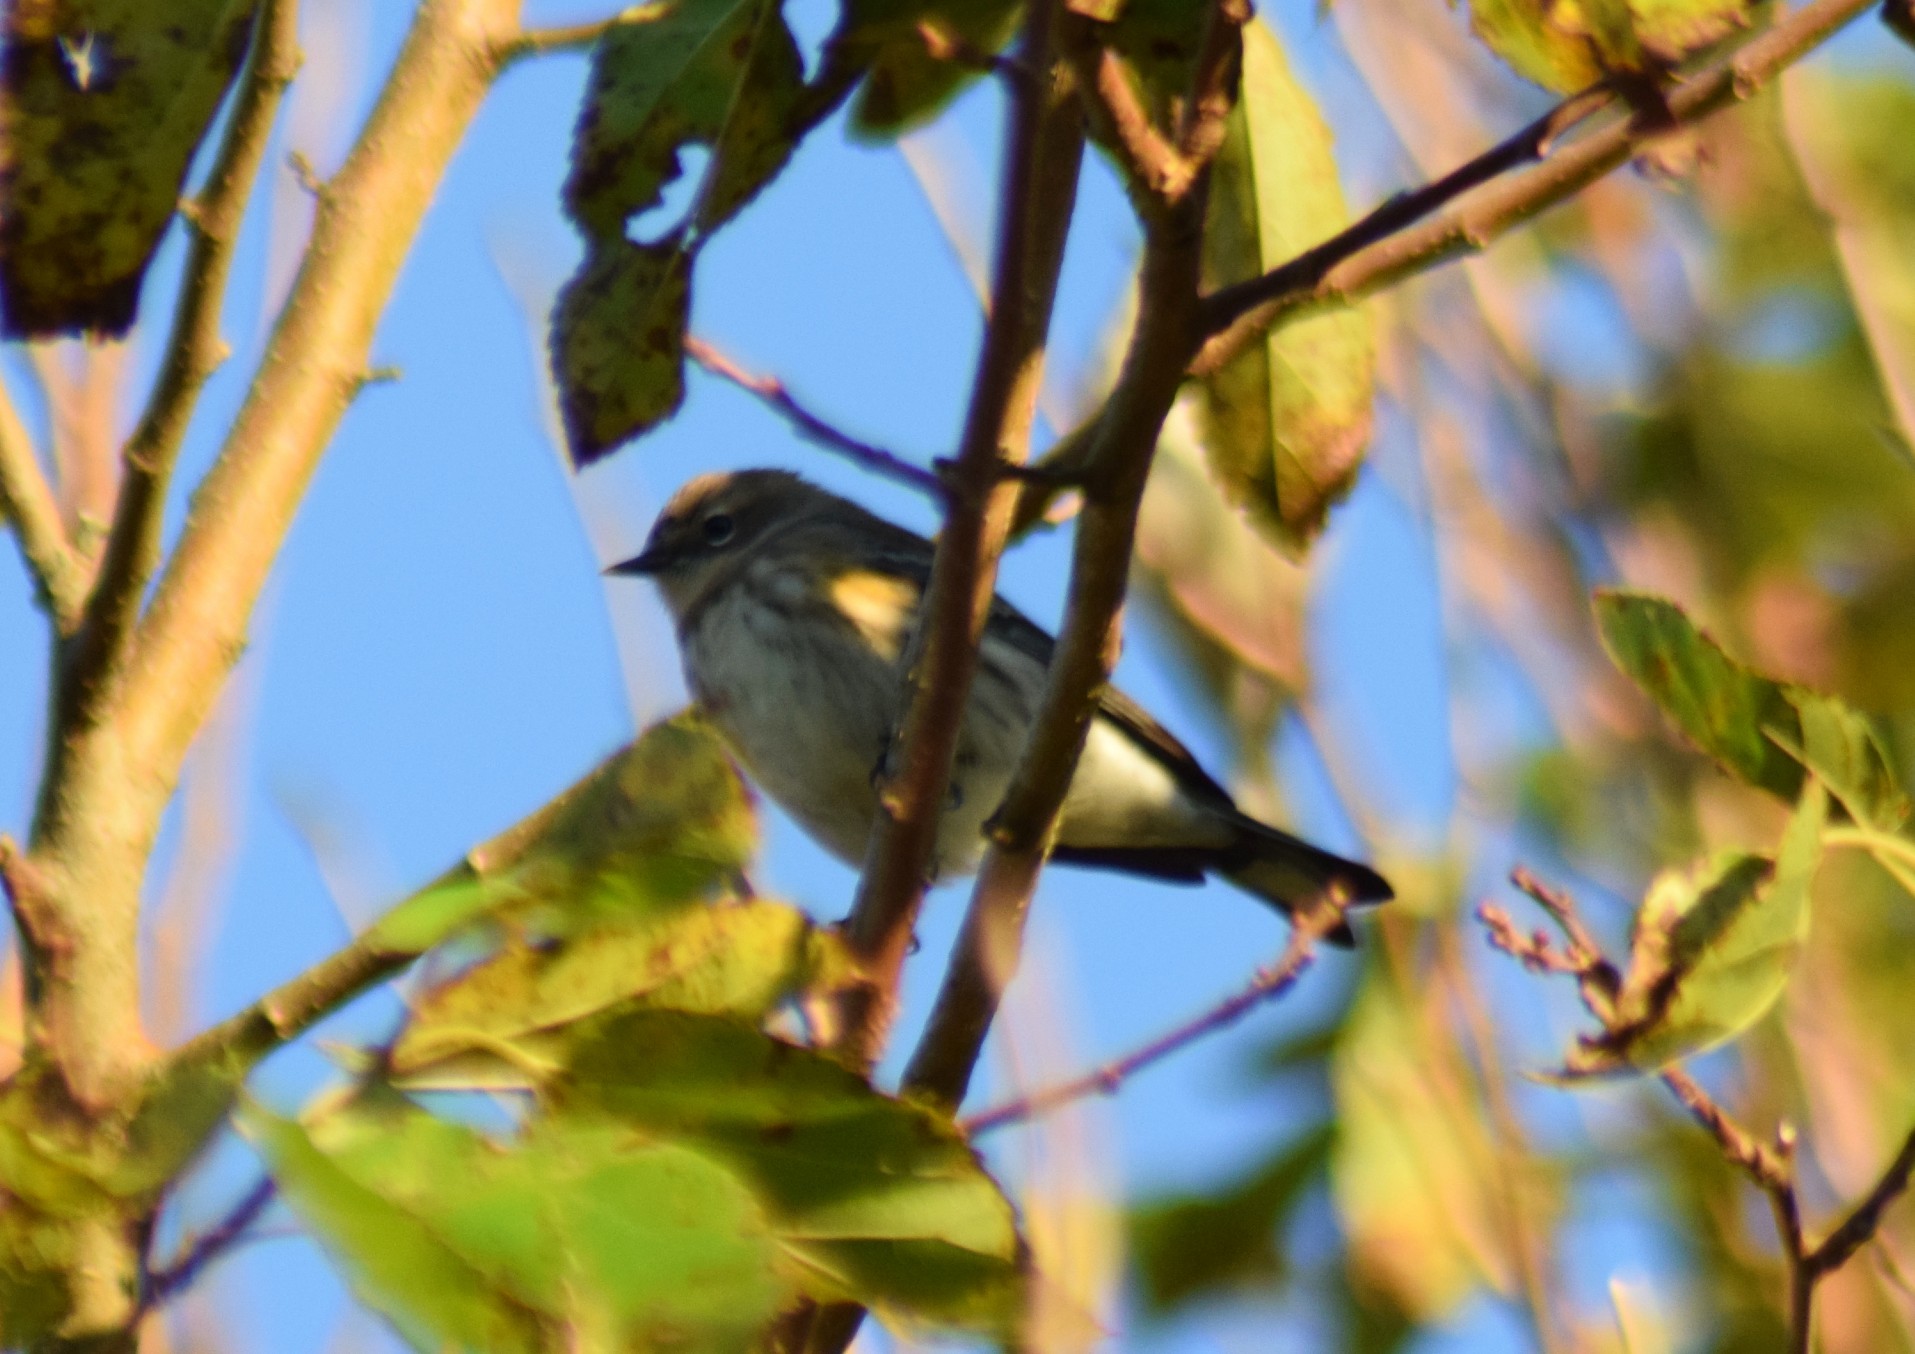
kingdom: Animalia
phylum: Chordata
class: Aves
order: Passeriformes
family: Parulidae
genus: Setophaga
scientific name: Setophaga coronata
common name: Myrtle warbler
